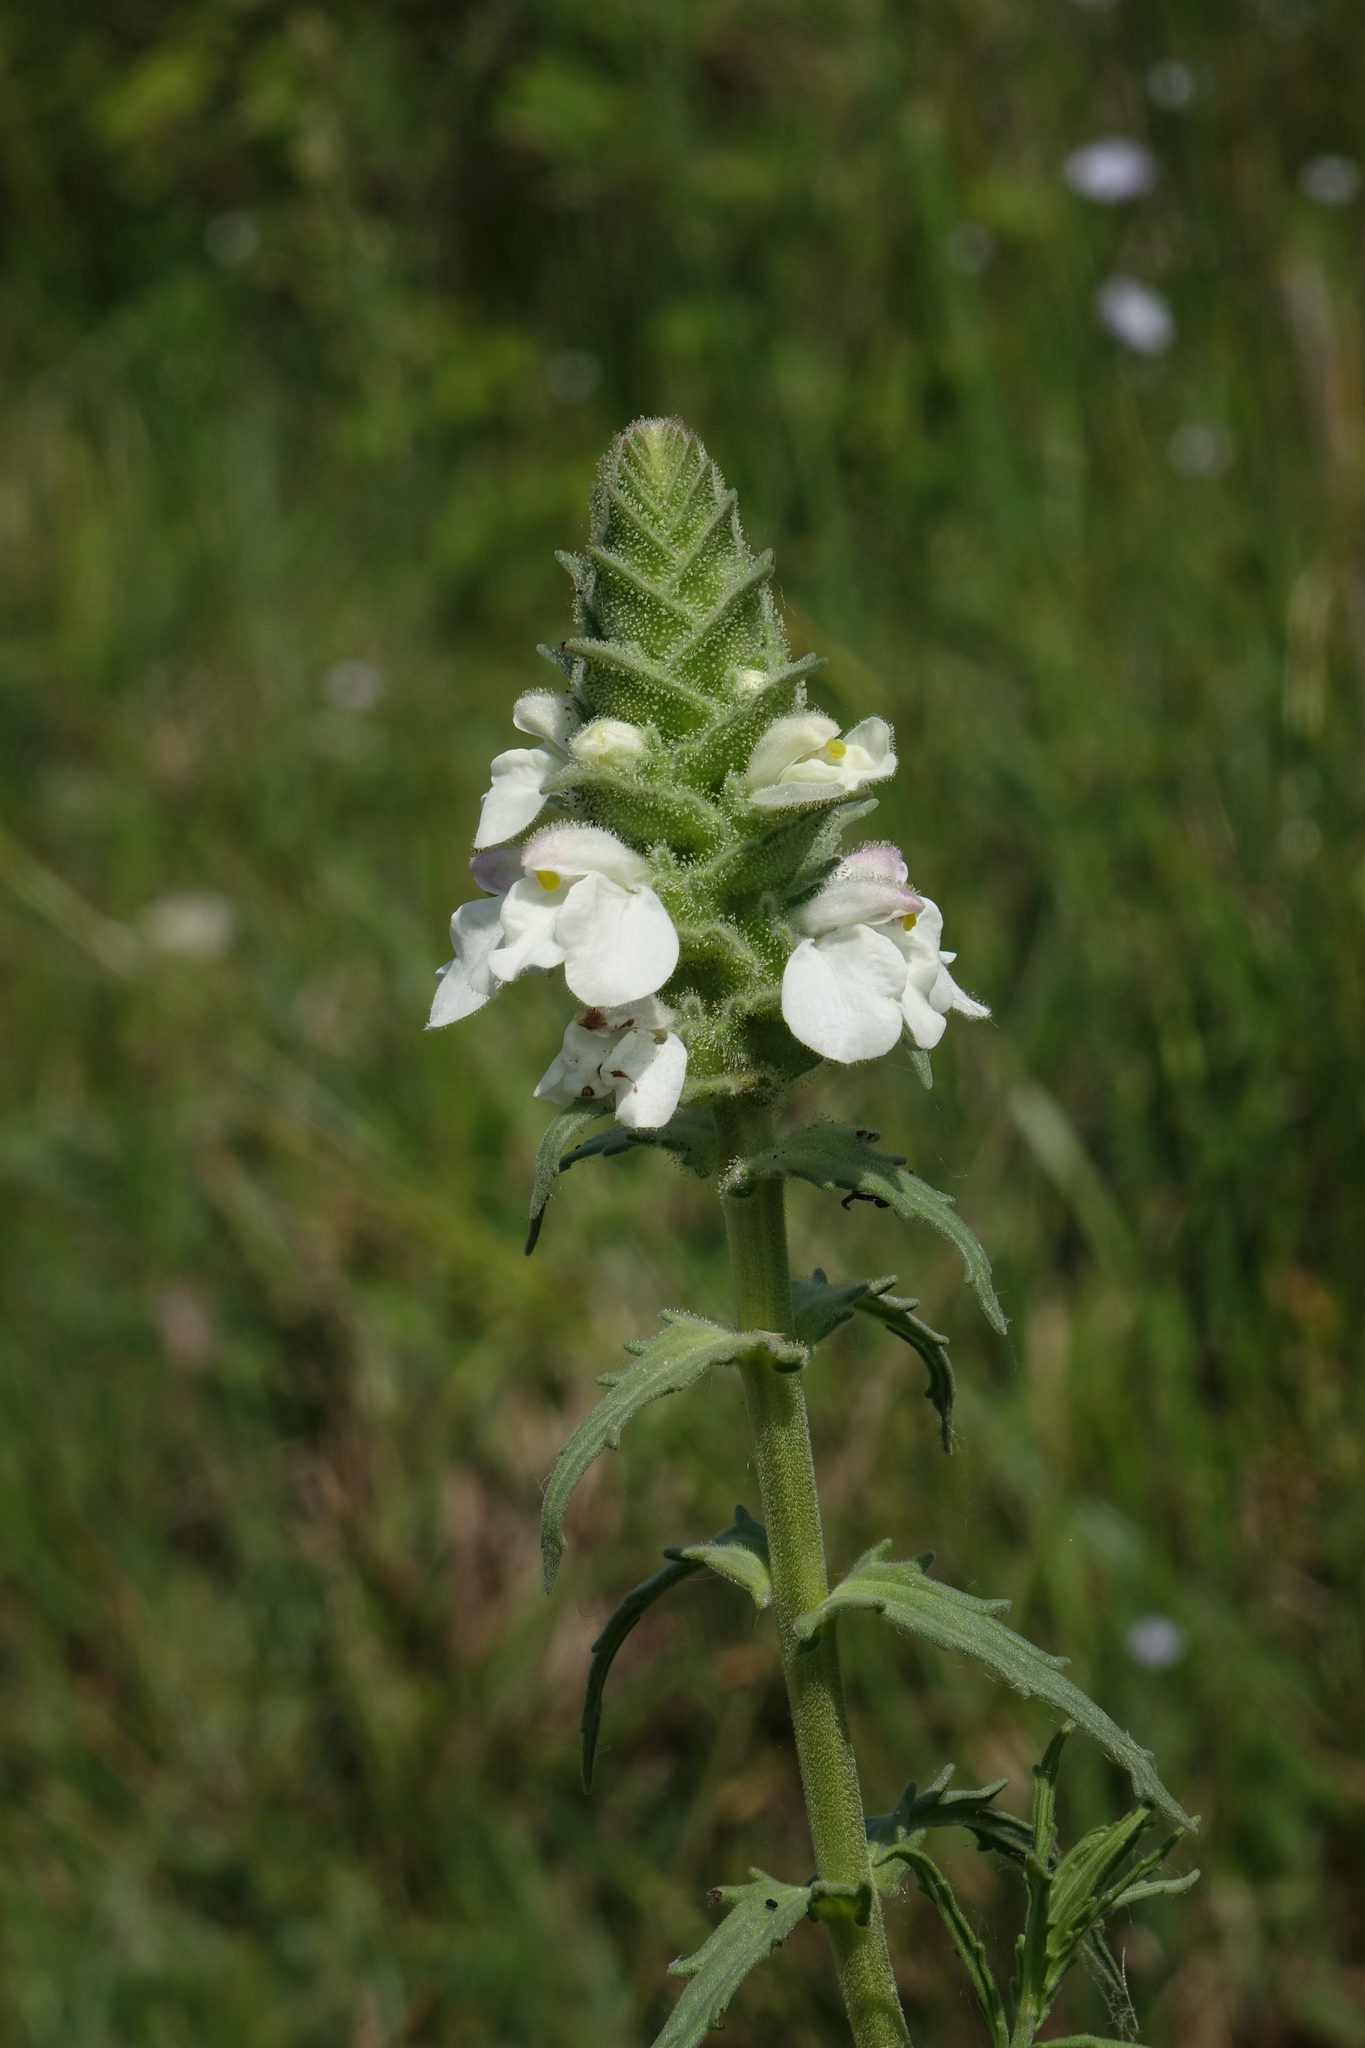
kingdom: Plantae
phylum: Tracheophyta
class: Magnoliopsida
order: Lamiales
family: Orobanchaceae
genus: Bellardia
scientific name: Bellardia trixago
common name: Mediterranean lineseed
